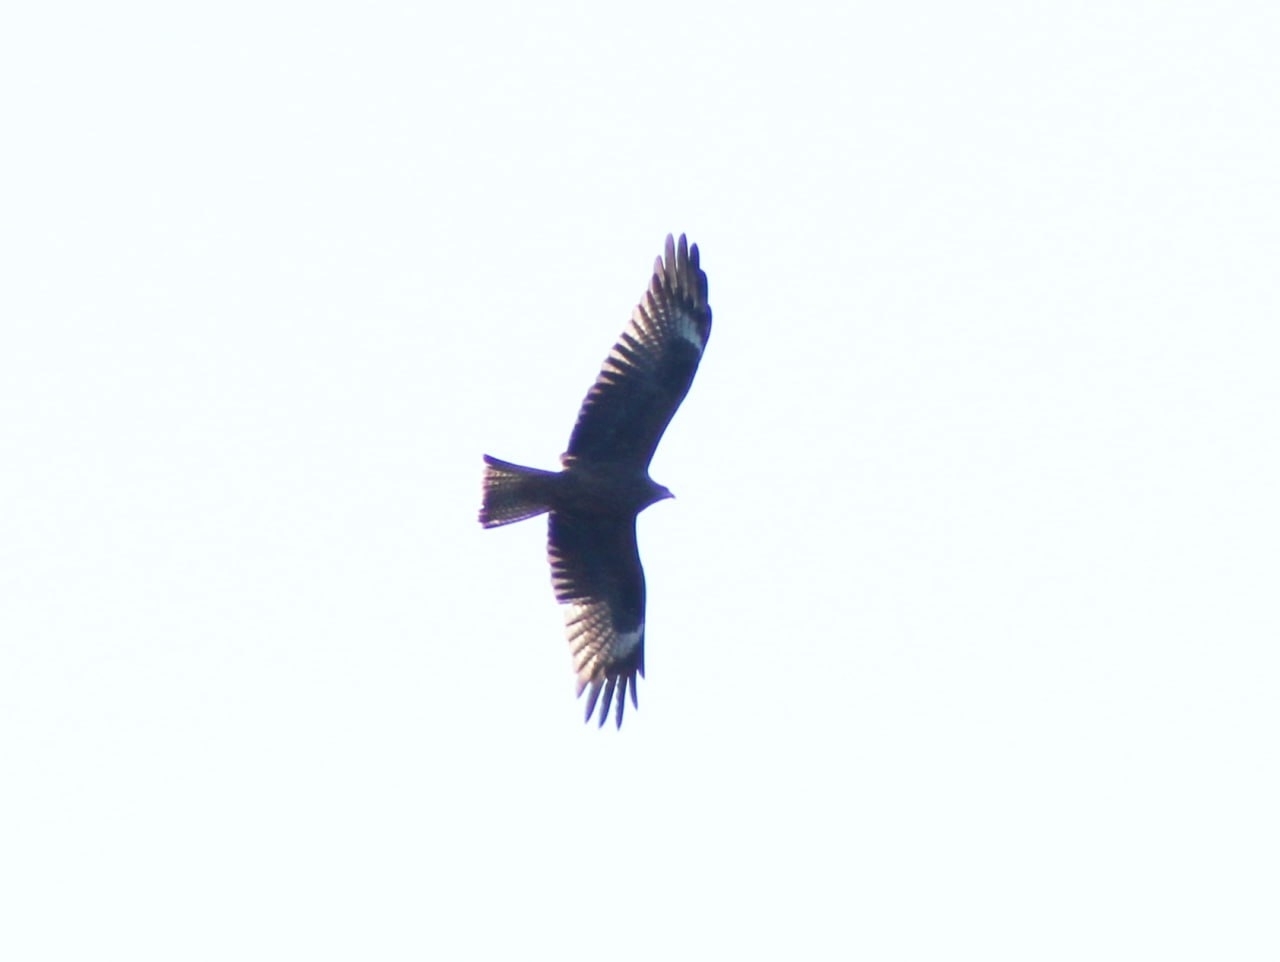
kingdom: Animalia
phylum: Chordata
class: Aves
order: Accipitriformes
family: Accipitridae
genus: Milvus
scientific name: Milvus migrans
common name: Black kite
